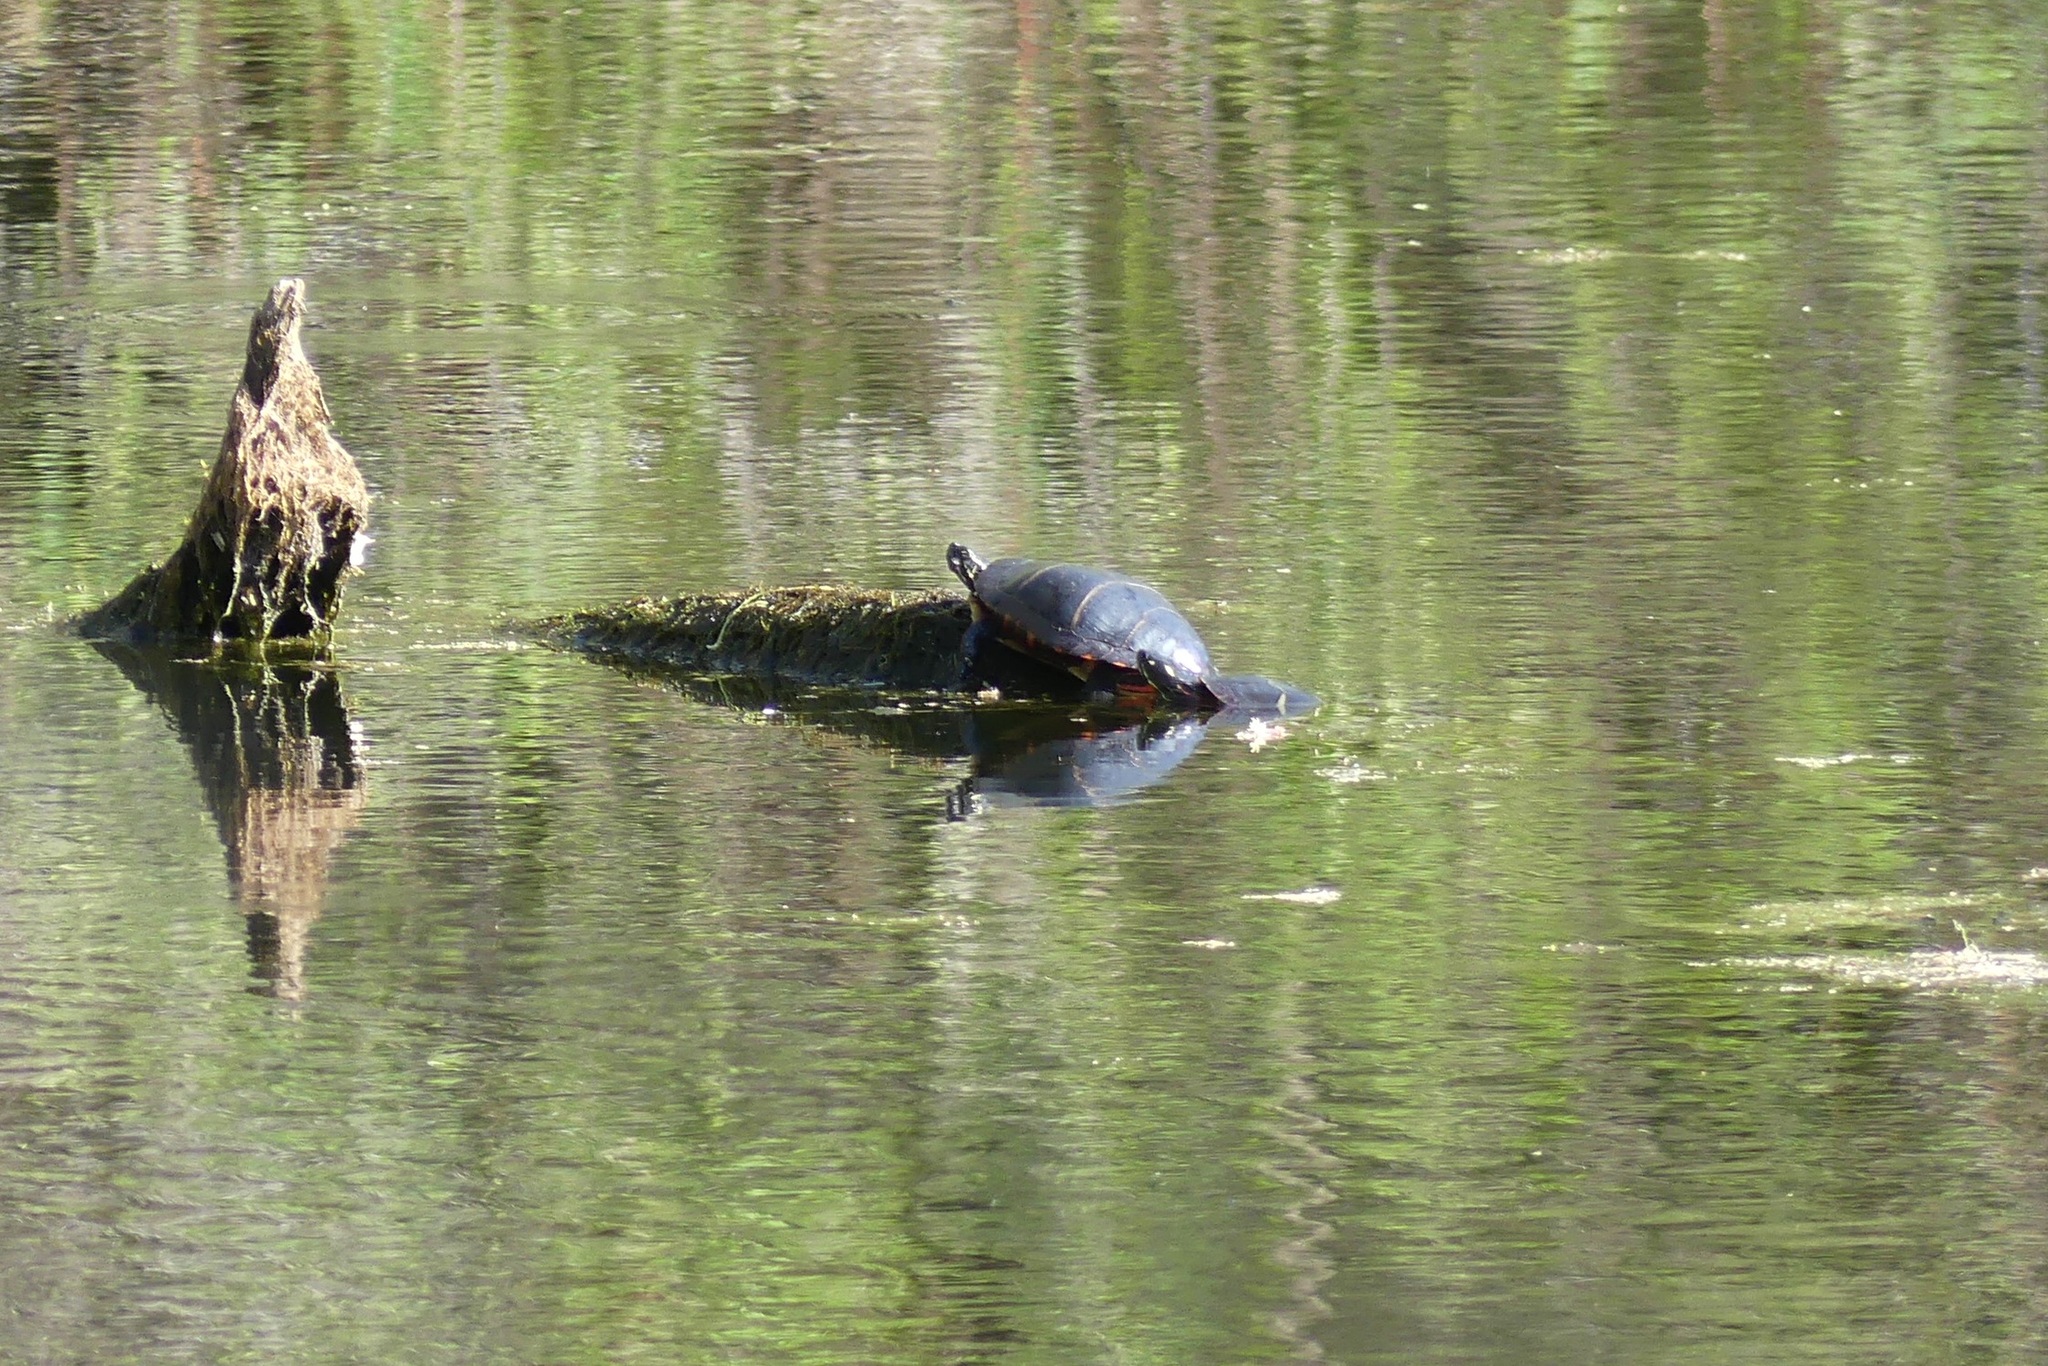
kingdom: Animalia
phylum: Chordata
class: Testudines
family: Emydidae
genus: Chrysemys
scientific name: Chrysemys picta
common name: Painted turtle
